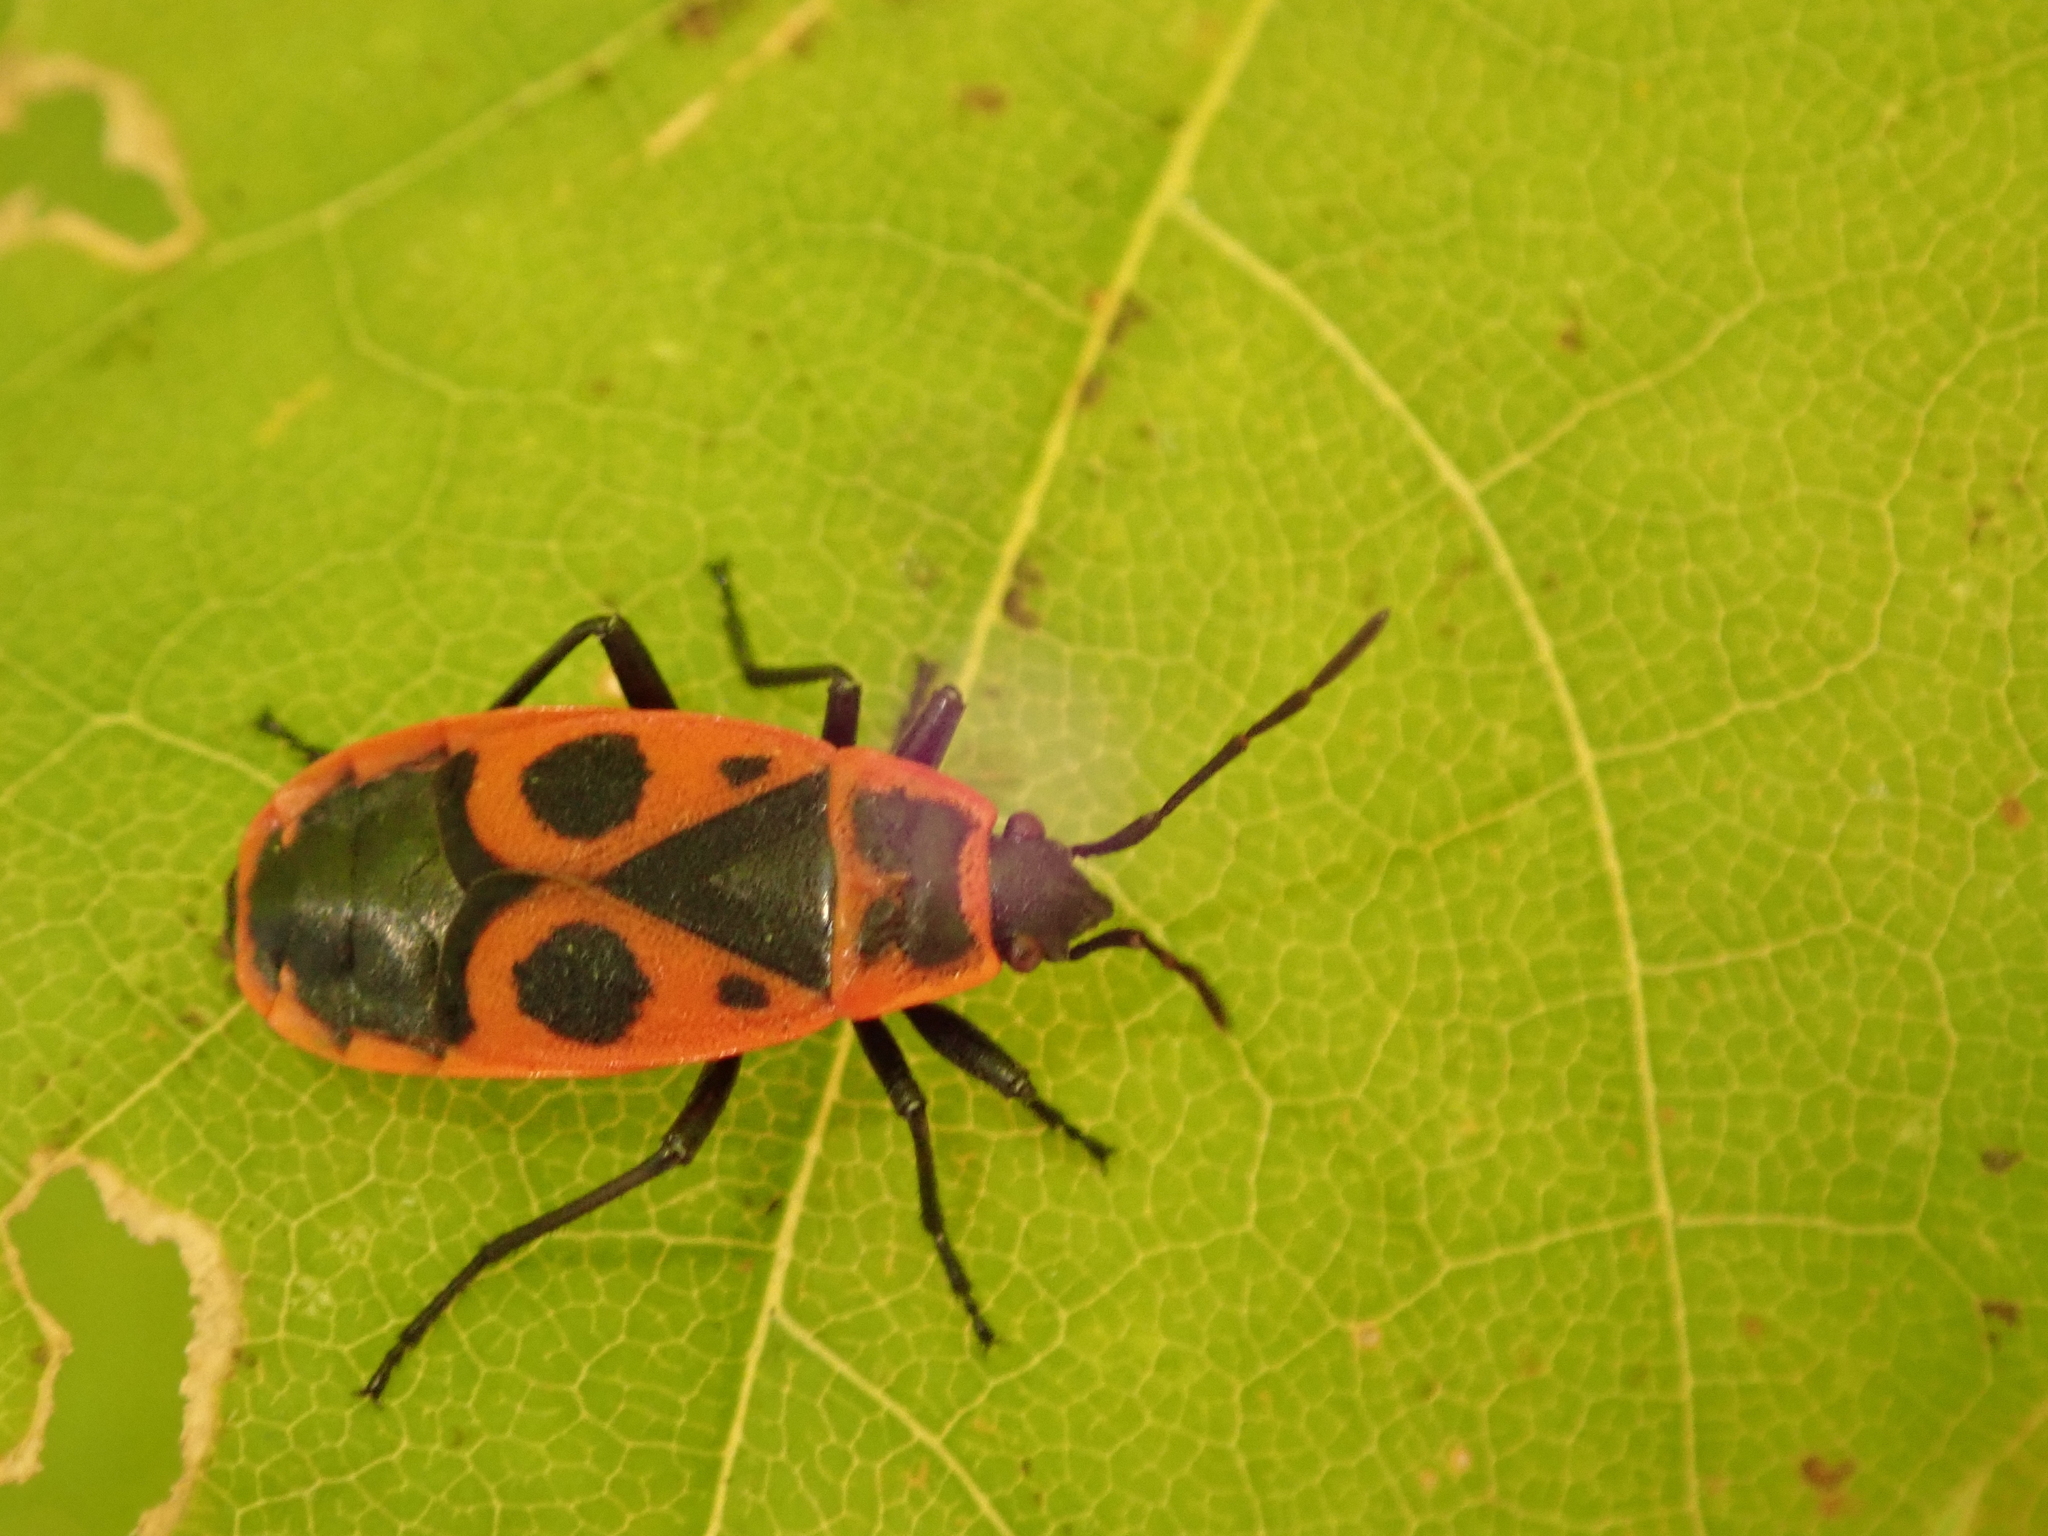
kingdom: Animalia
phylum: Arthropoda
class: Insecta
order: Hemiptera
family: Pyrrhocoridae
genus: Pyrrhocoris
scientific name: Pyrrhocoris apterus
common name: Firebug
